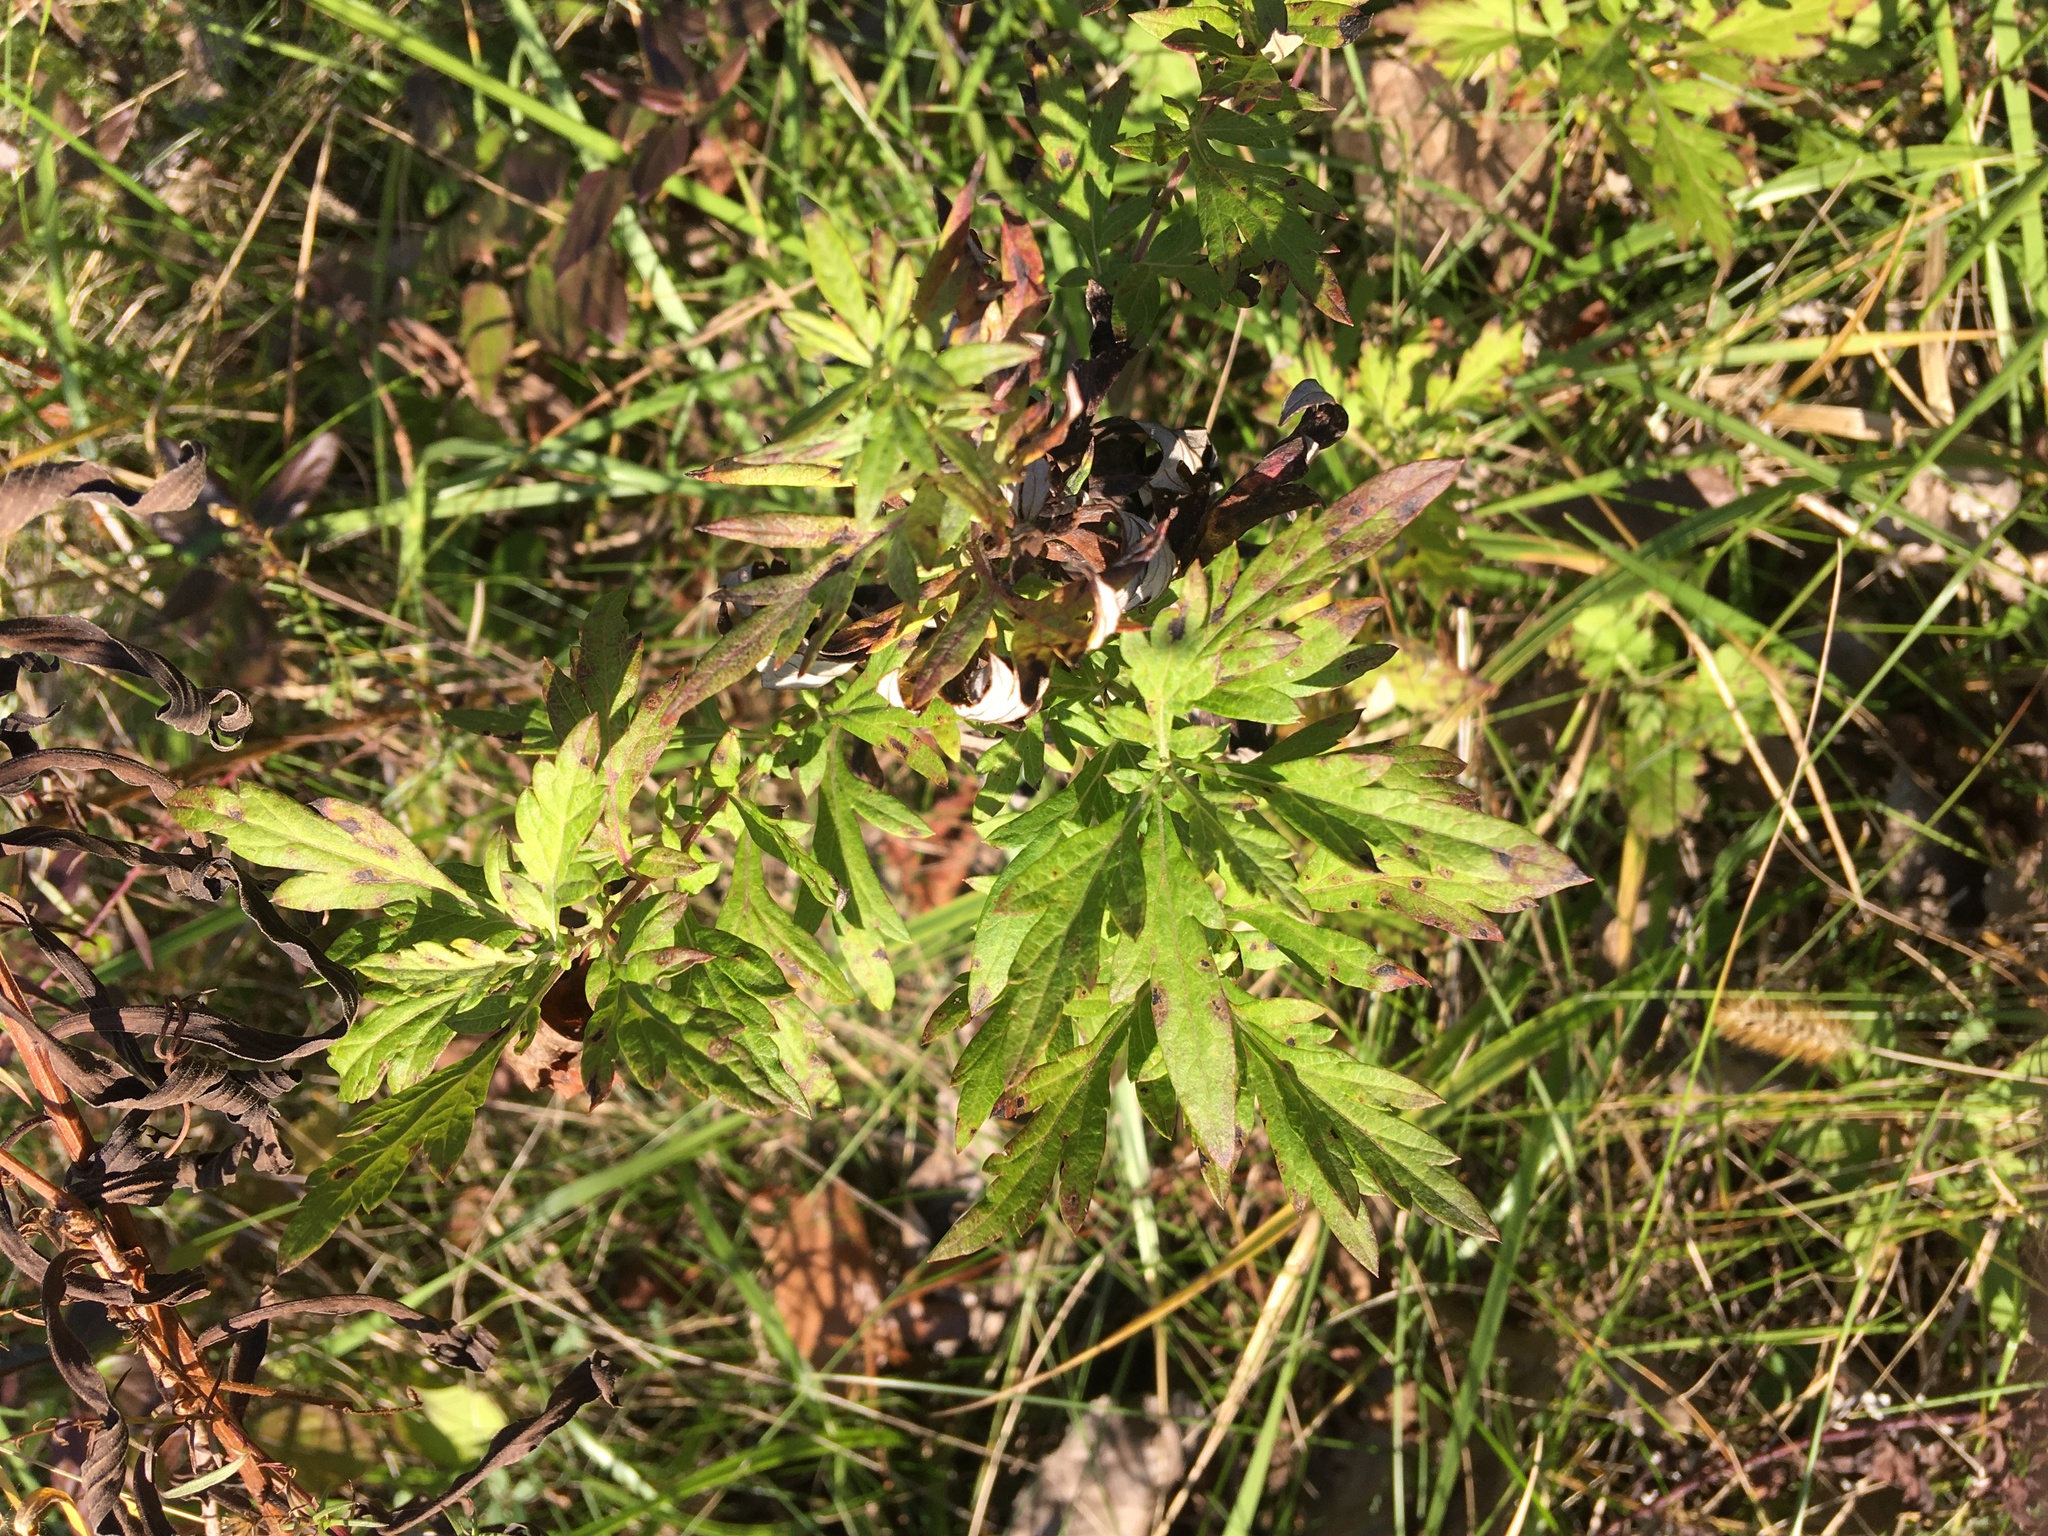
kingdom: Plantae
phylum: Tracheophyta
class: Magnoliopsida
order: Asterales
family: Asteraceae
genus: Artemisia
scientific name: Artemisia vulgaris
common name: Mugwort
